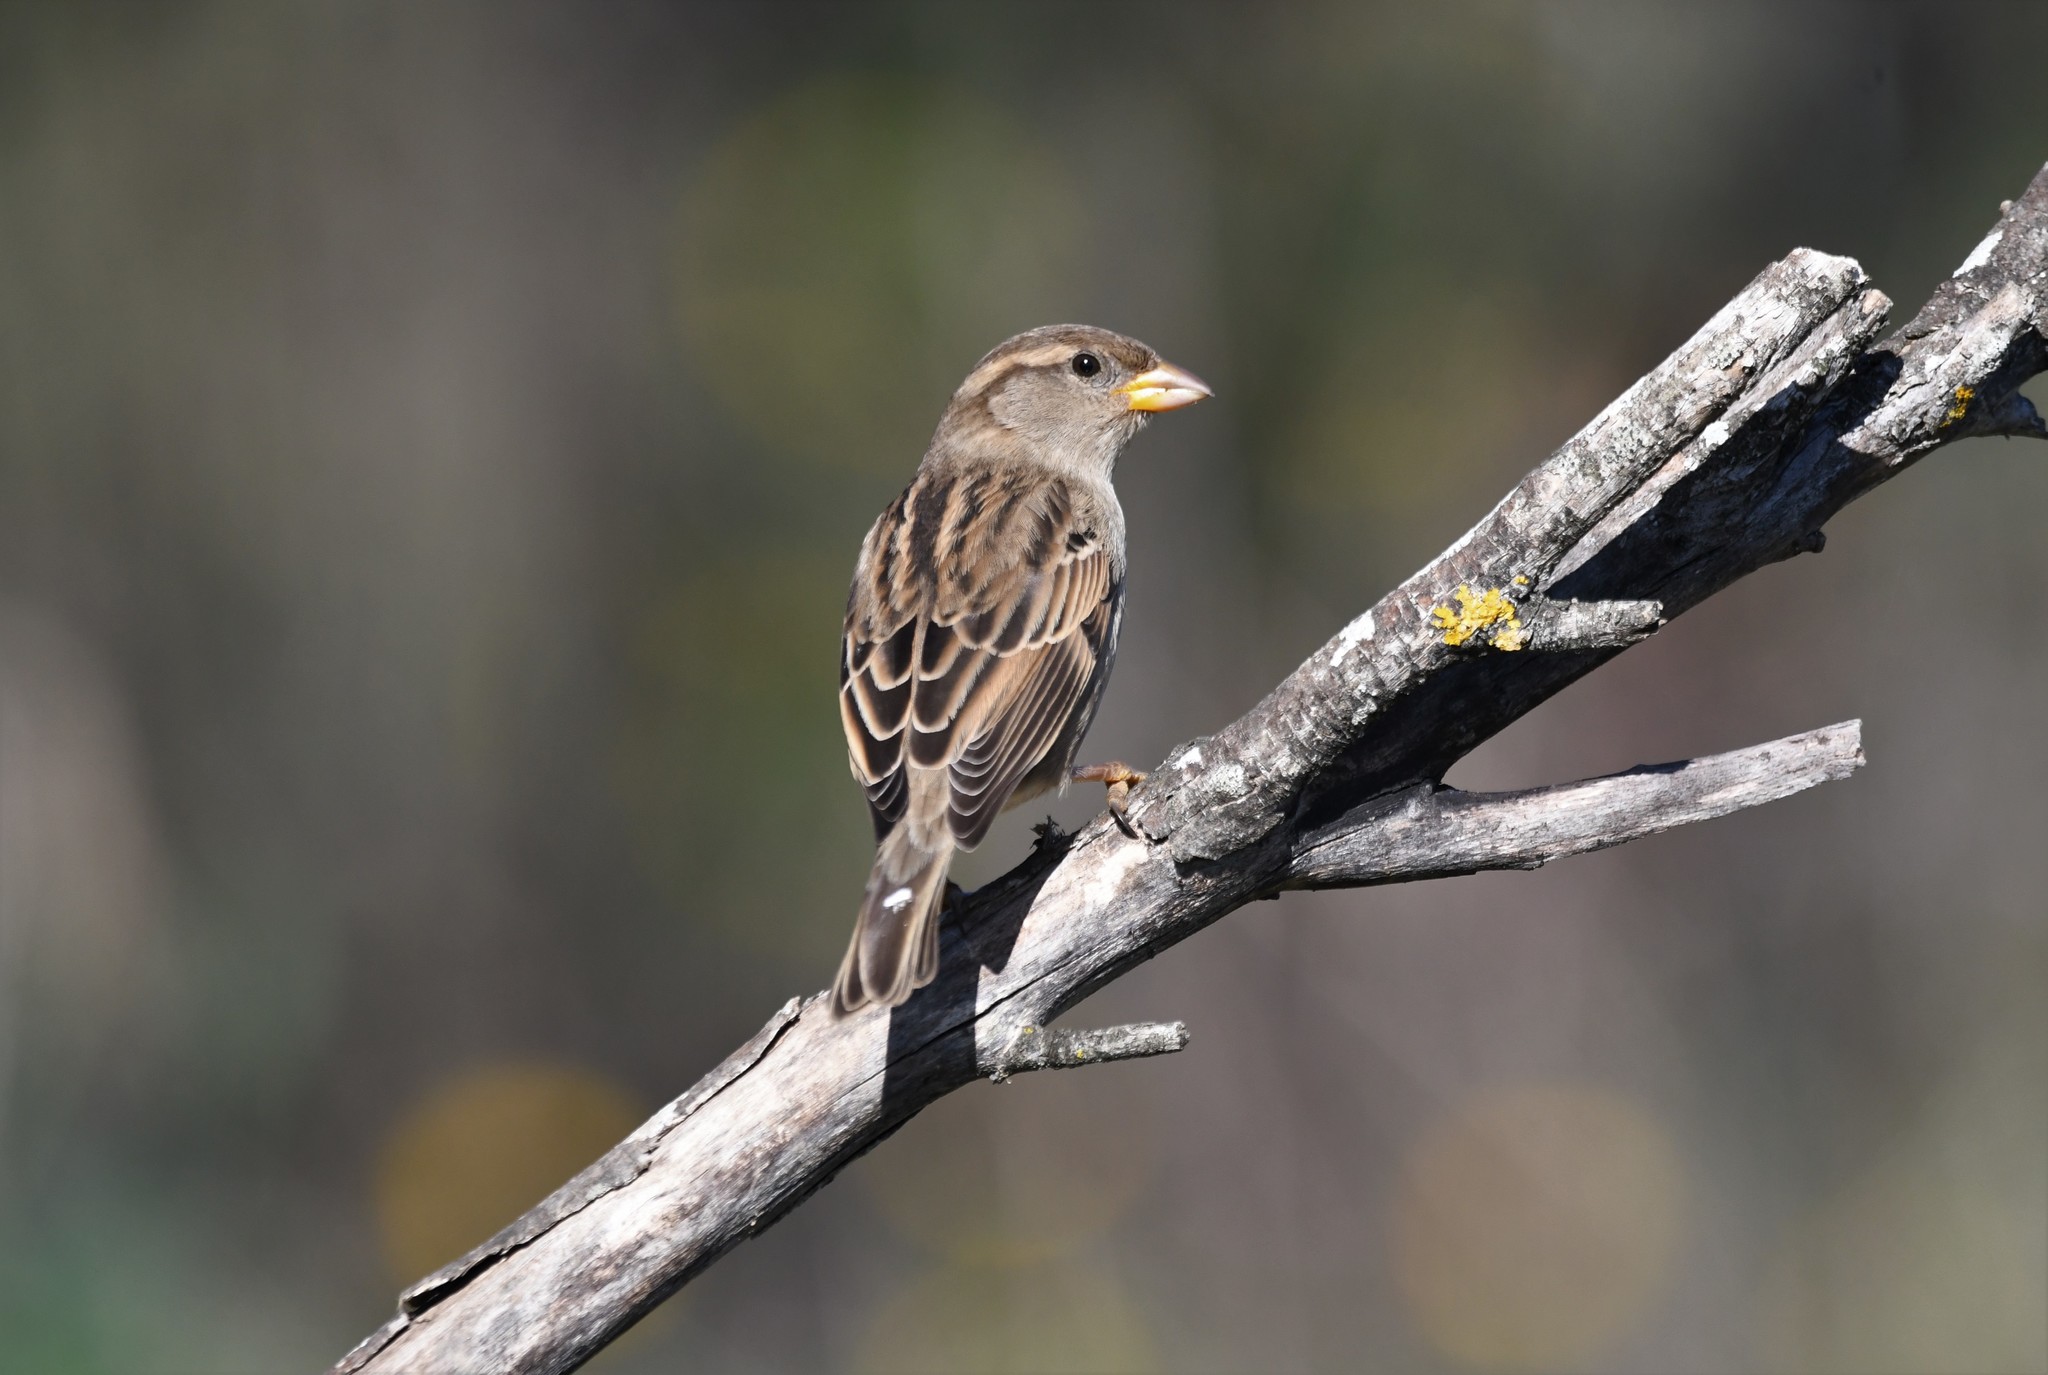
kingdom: Animalia
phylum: Chordata
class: Aves
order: Passeriformes
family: Passeridae
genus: Passer
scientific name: Passer domesticus
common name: House sparrow
